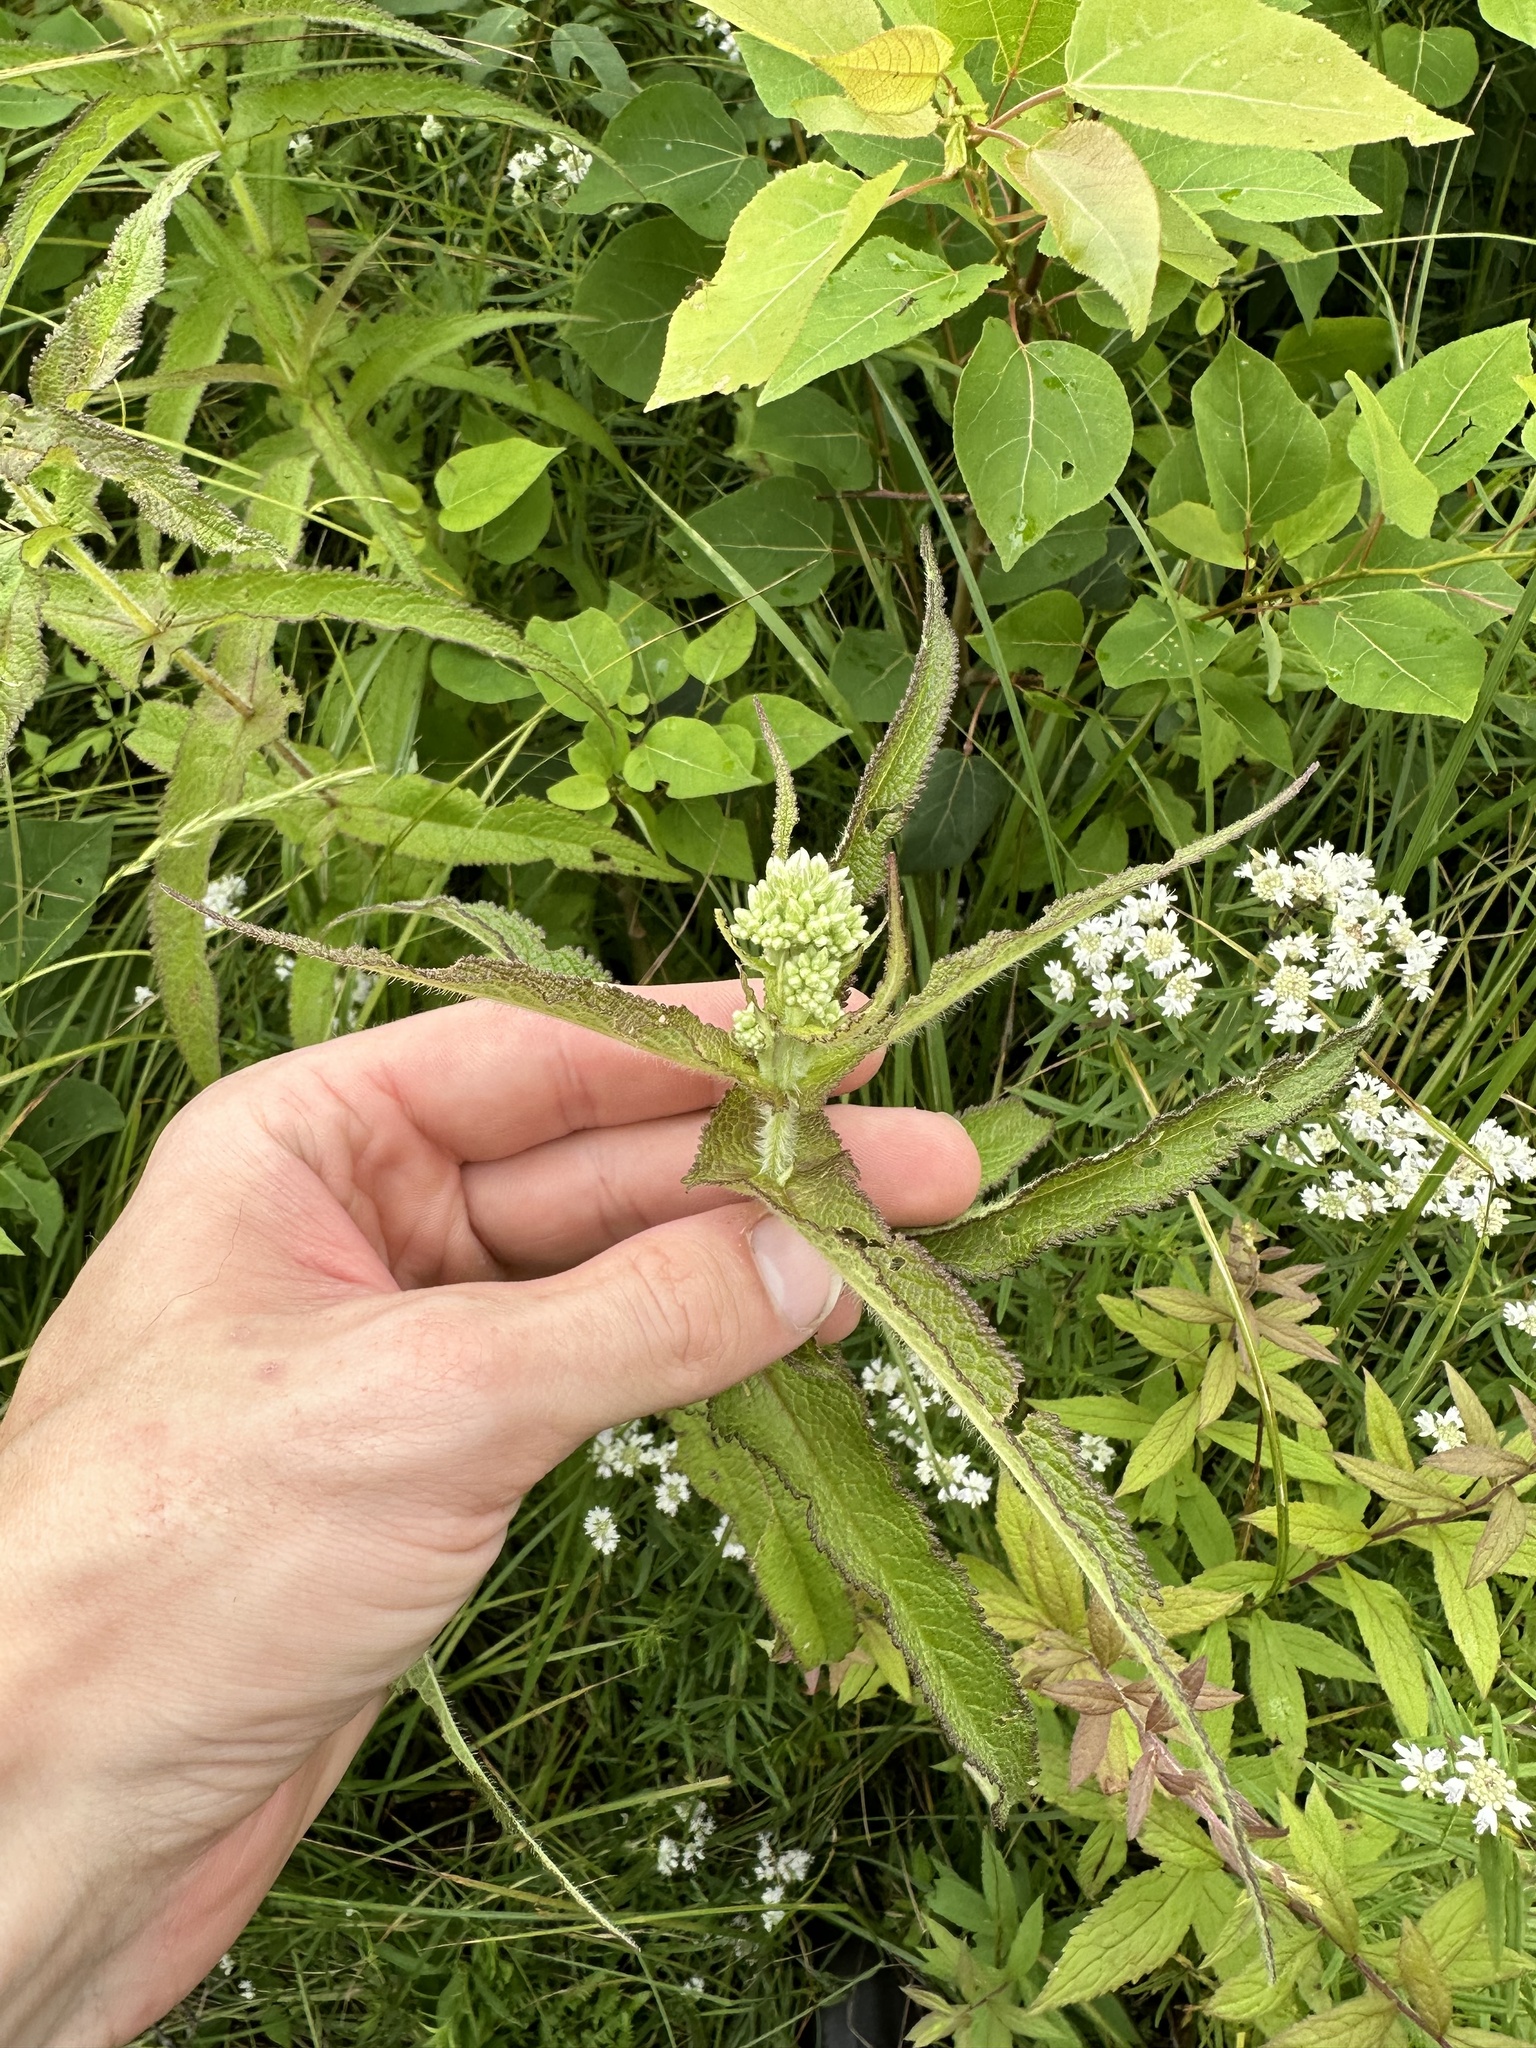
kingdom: Plantae
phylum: Tracheophyta
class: Magnoliopsida
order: Asterales
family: Asteraceae
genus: Eupatorium
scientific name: Eupatorium perfoliatum
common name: Boneset
